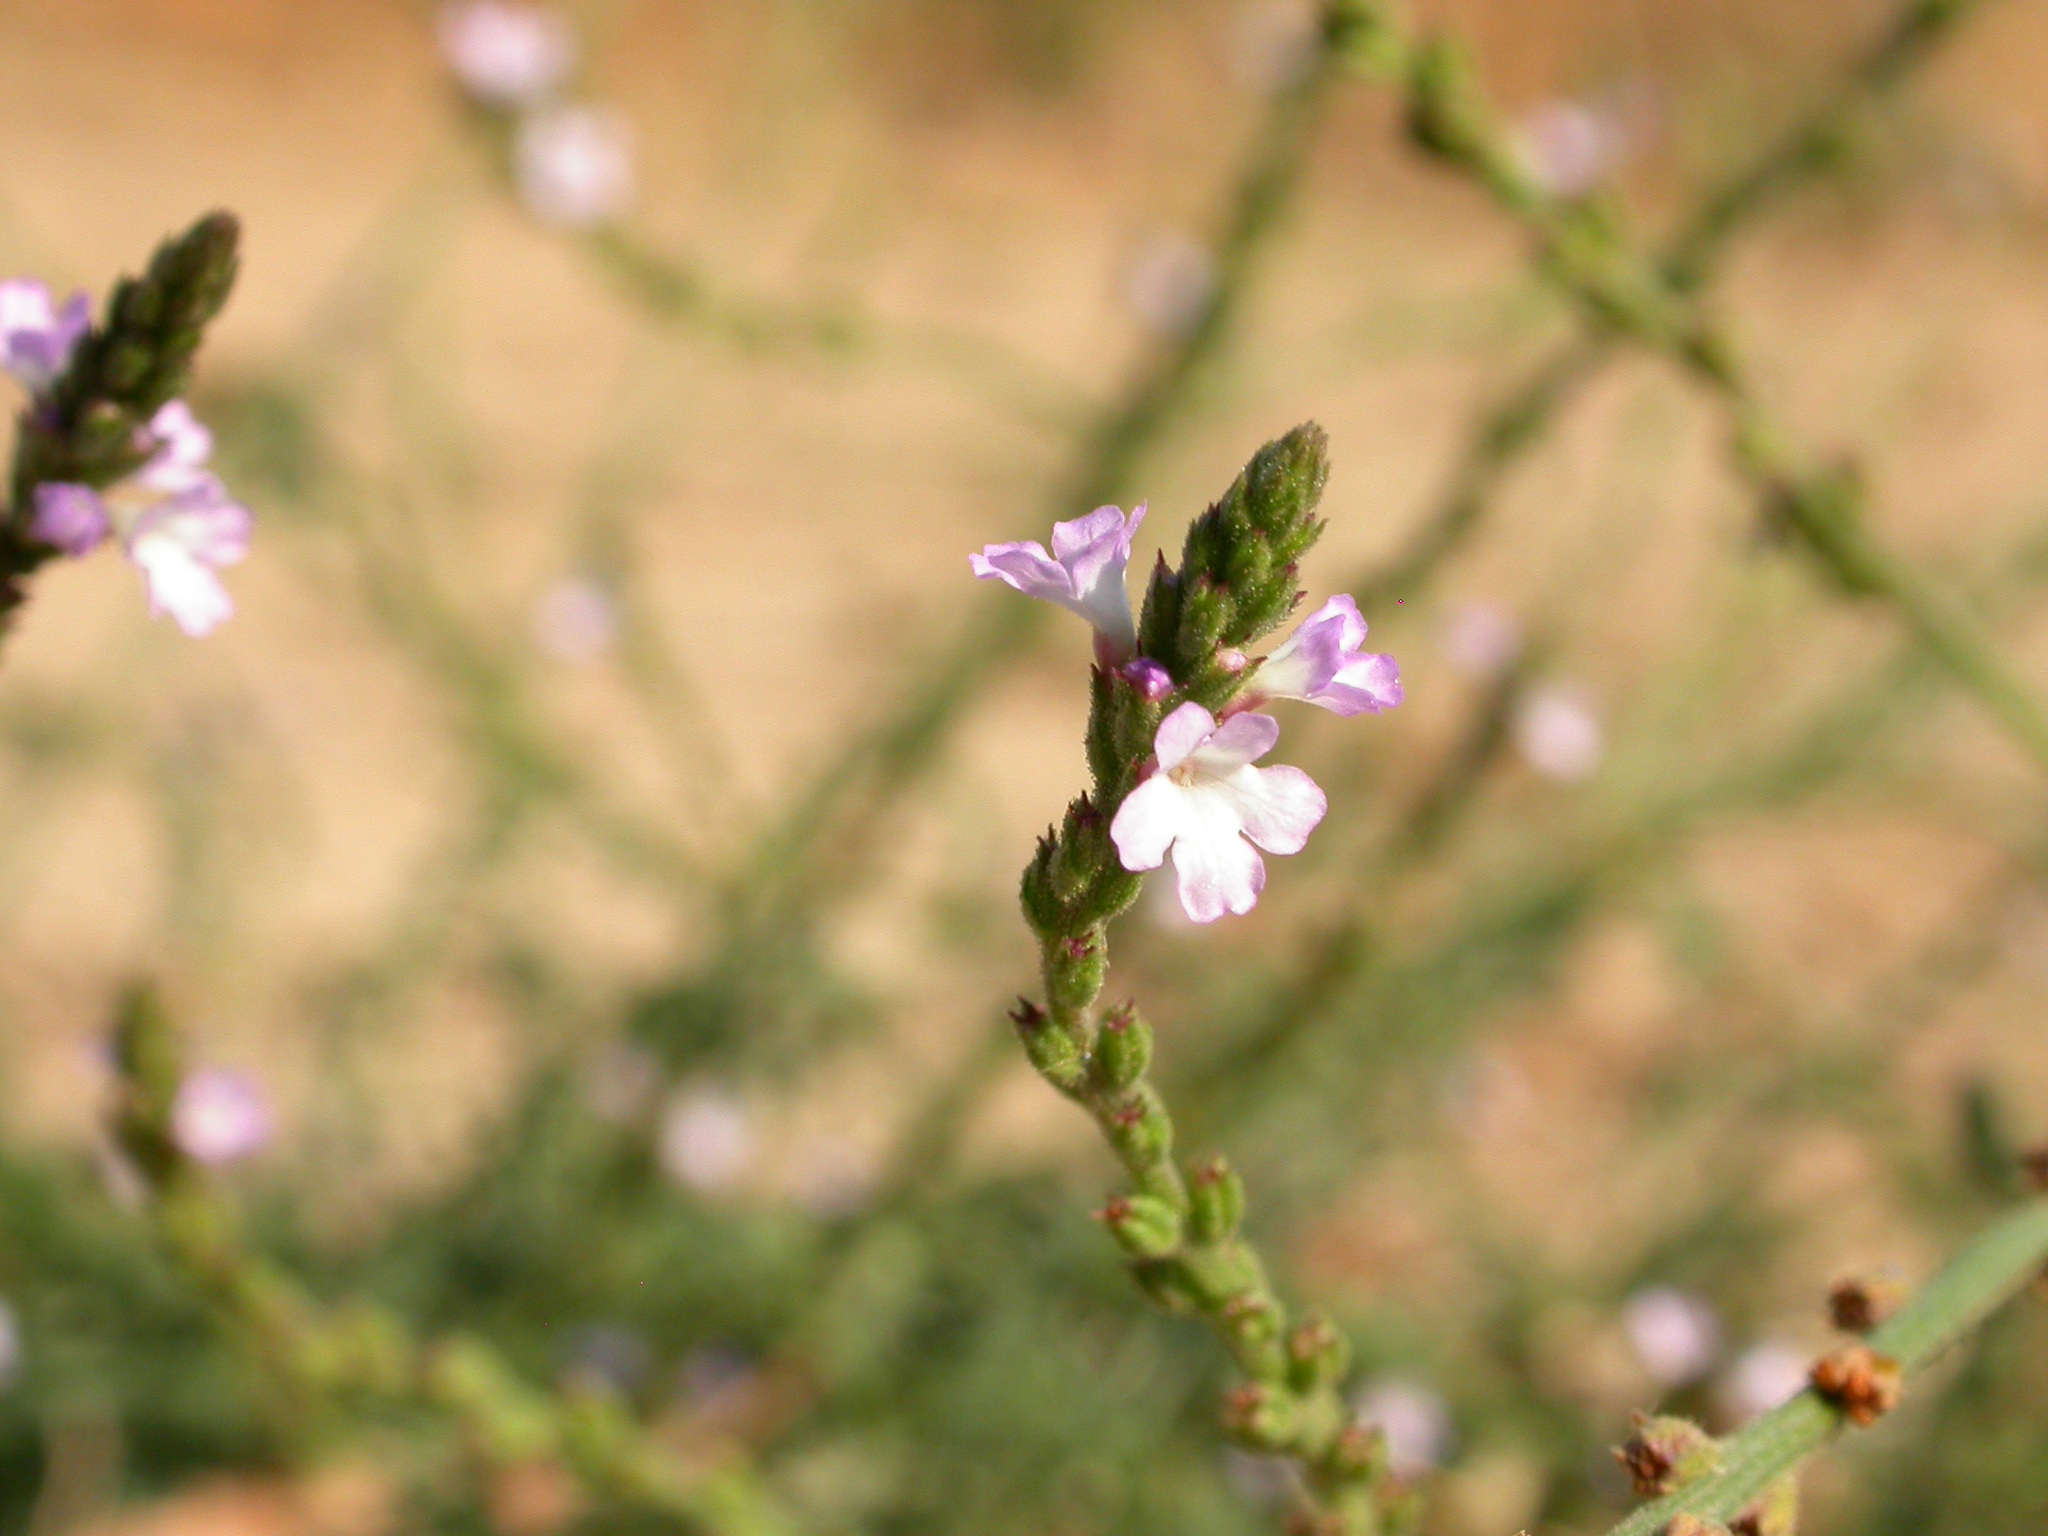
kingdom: Plantae
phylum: Tracheophyta
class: Magnoliopsida
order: Lamiales
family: Verbenaceae
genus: Verbena
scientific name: Verbena officinalis
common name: Vervain
